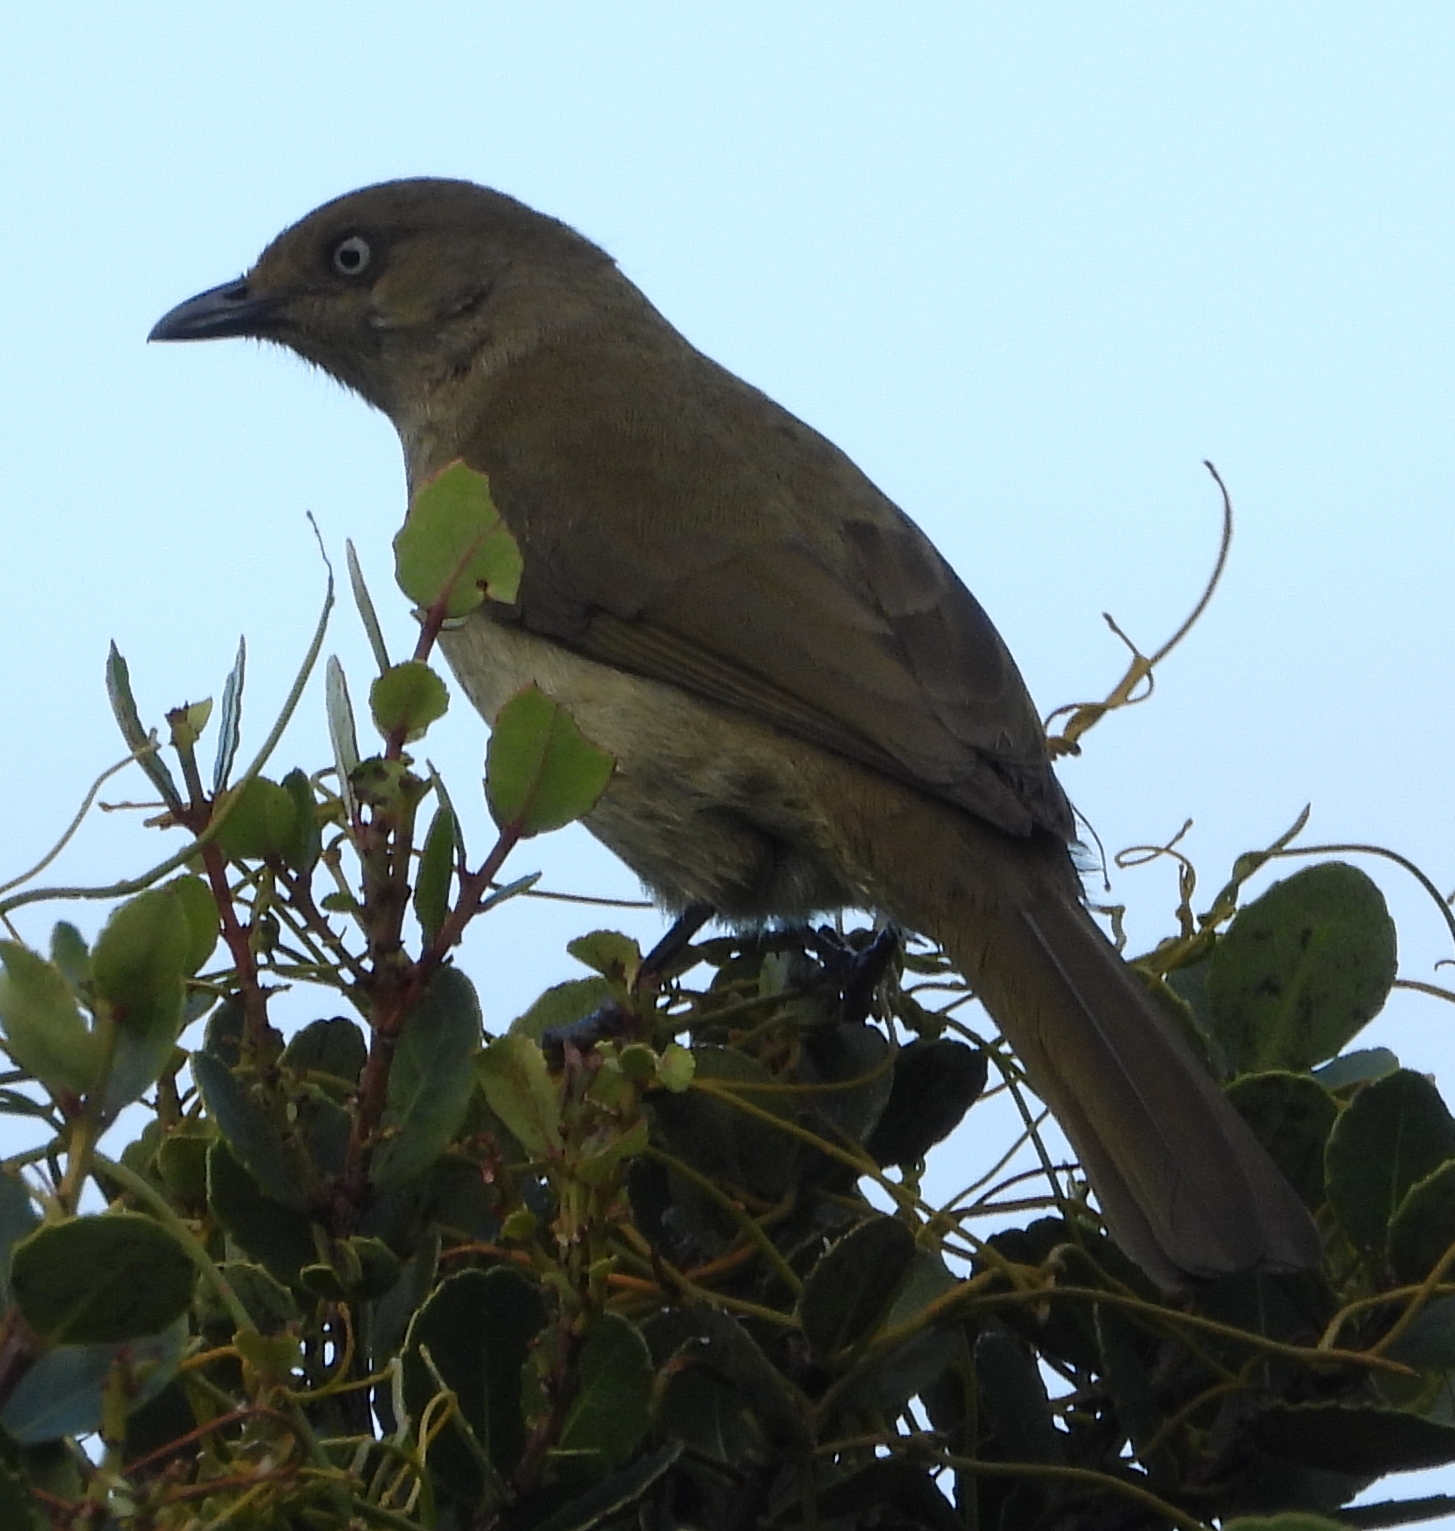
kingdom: Animalia
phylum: Chordata
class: Aves
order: Passeriformes
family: Pycnonotidae
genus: Andropadus
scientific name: Andropadus importunus
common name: Sombre greenbul
